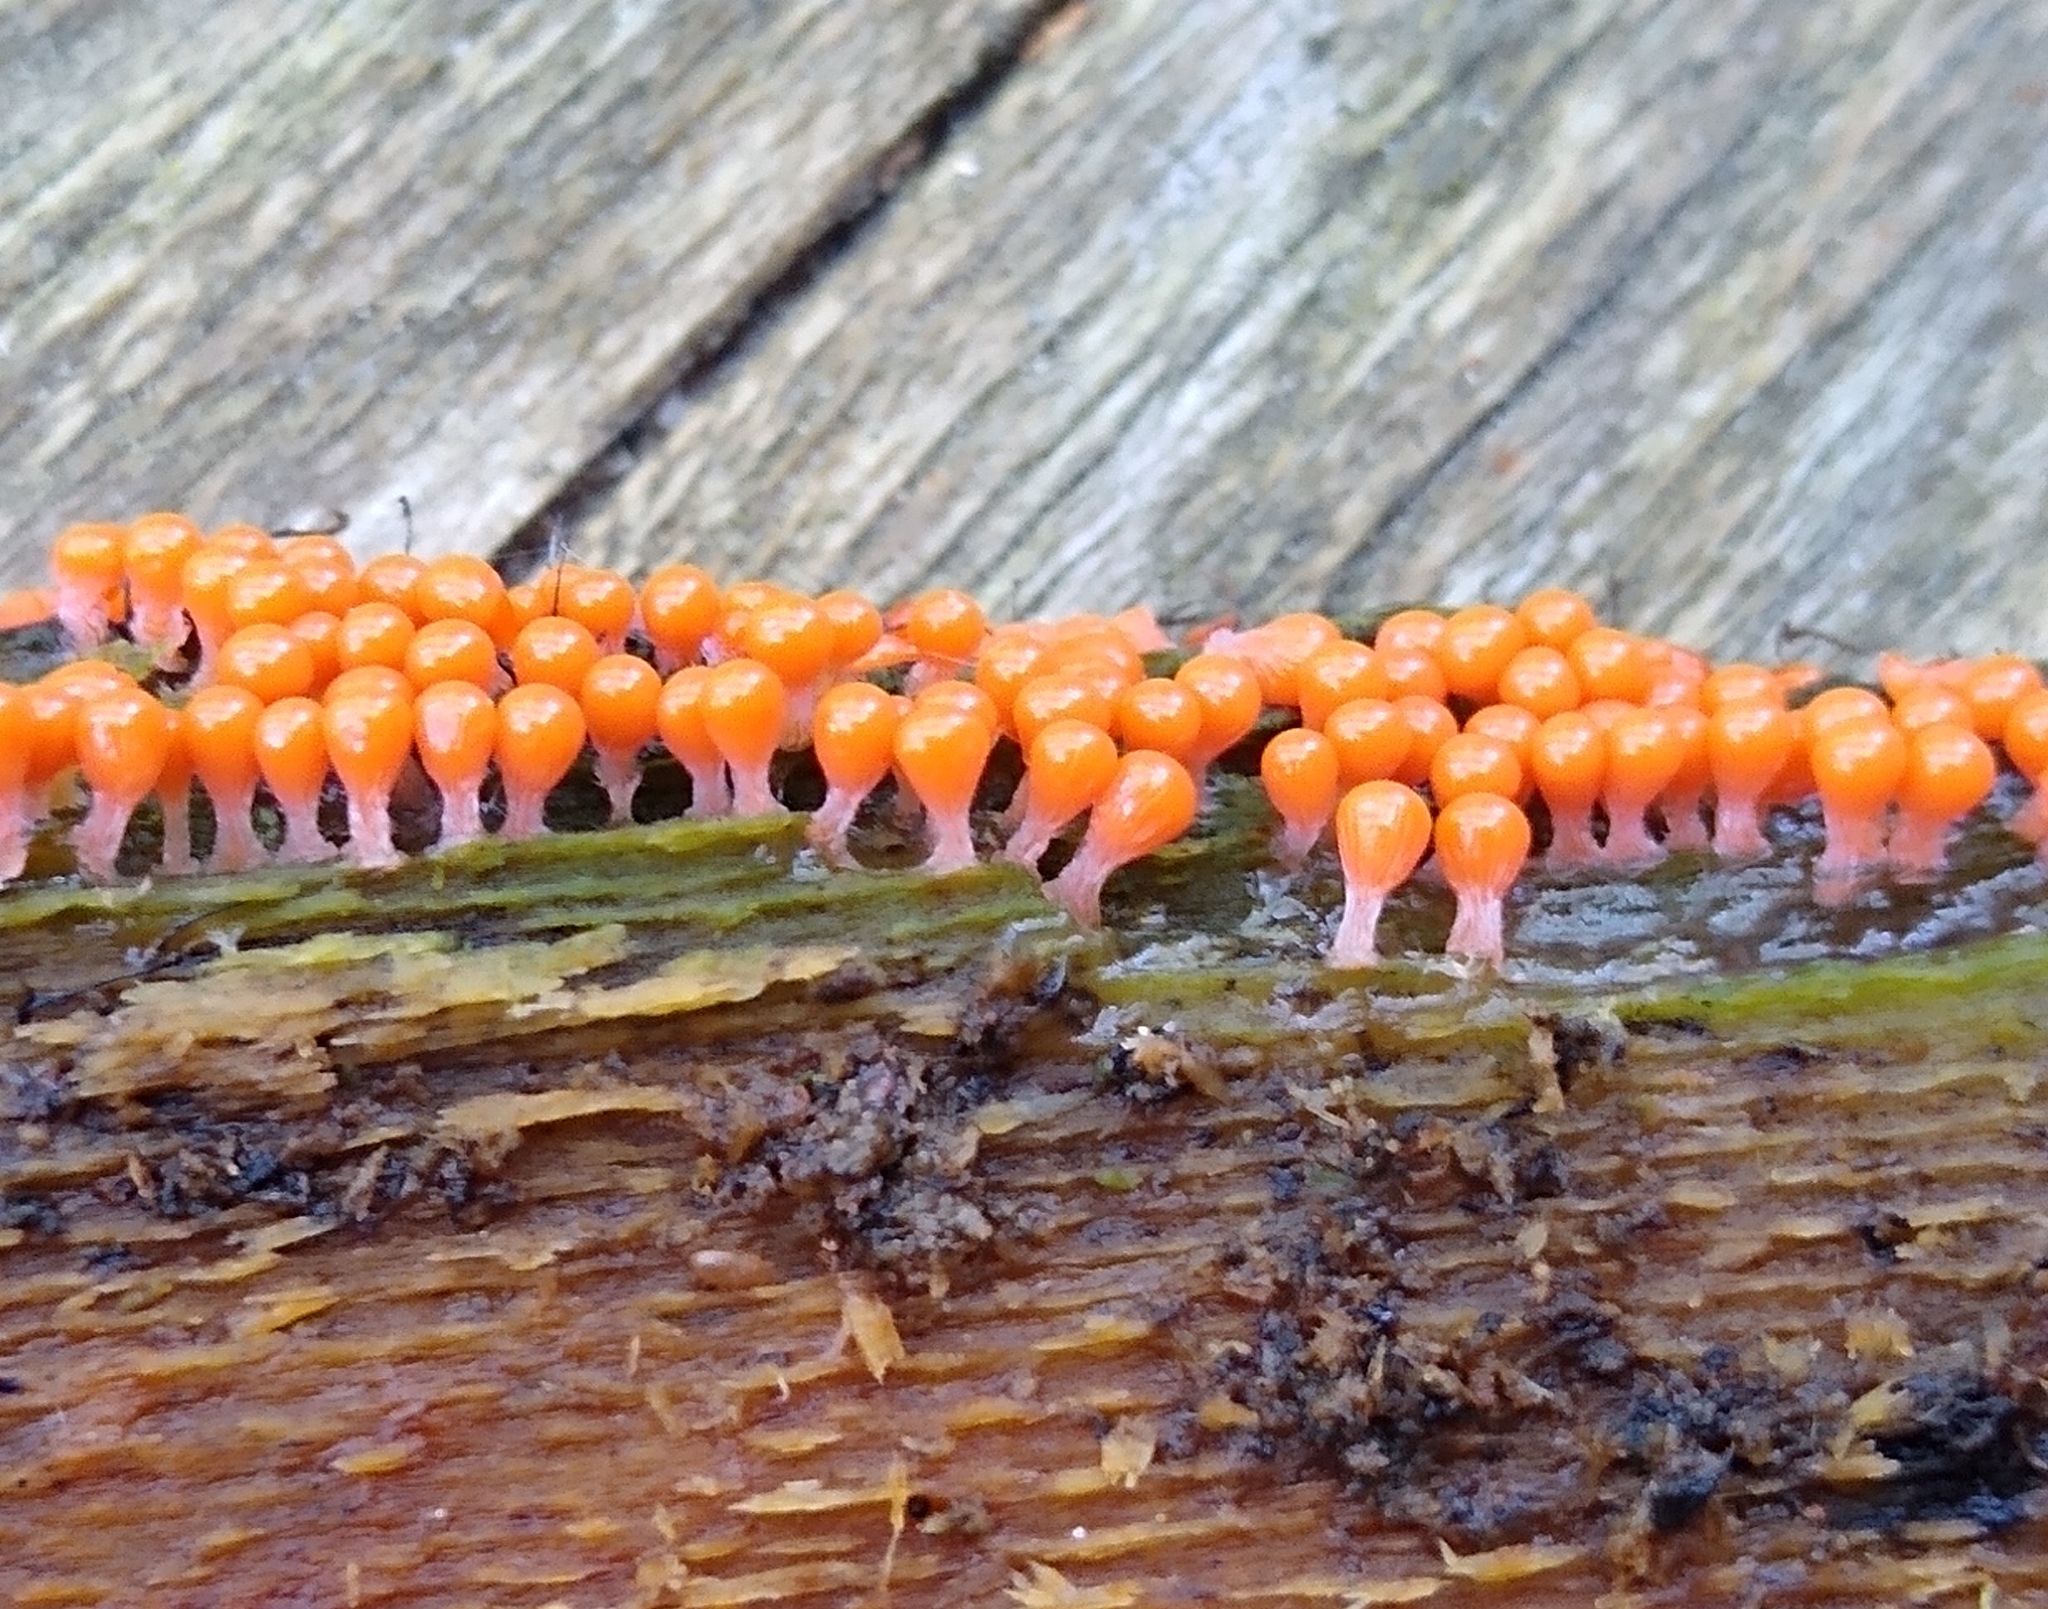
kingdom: Protozoa
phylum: Mycetozoa
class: Myxomycetes
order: Trichiales
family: Arcyriaceae
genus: Hemitrichia
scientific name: Hemitrichia decipiens
